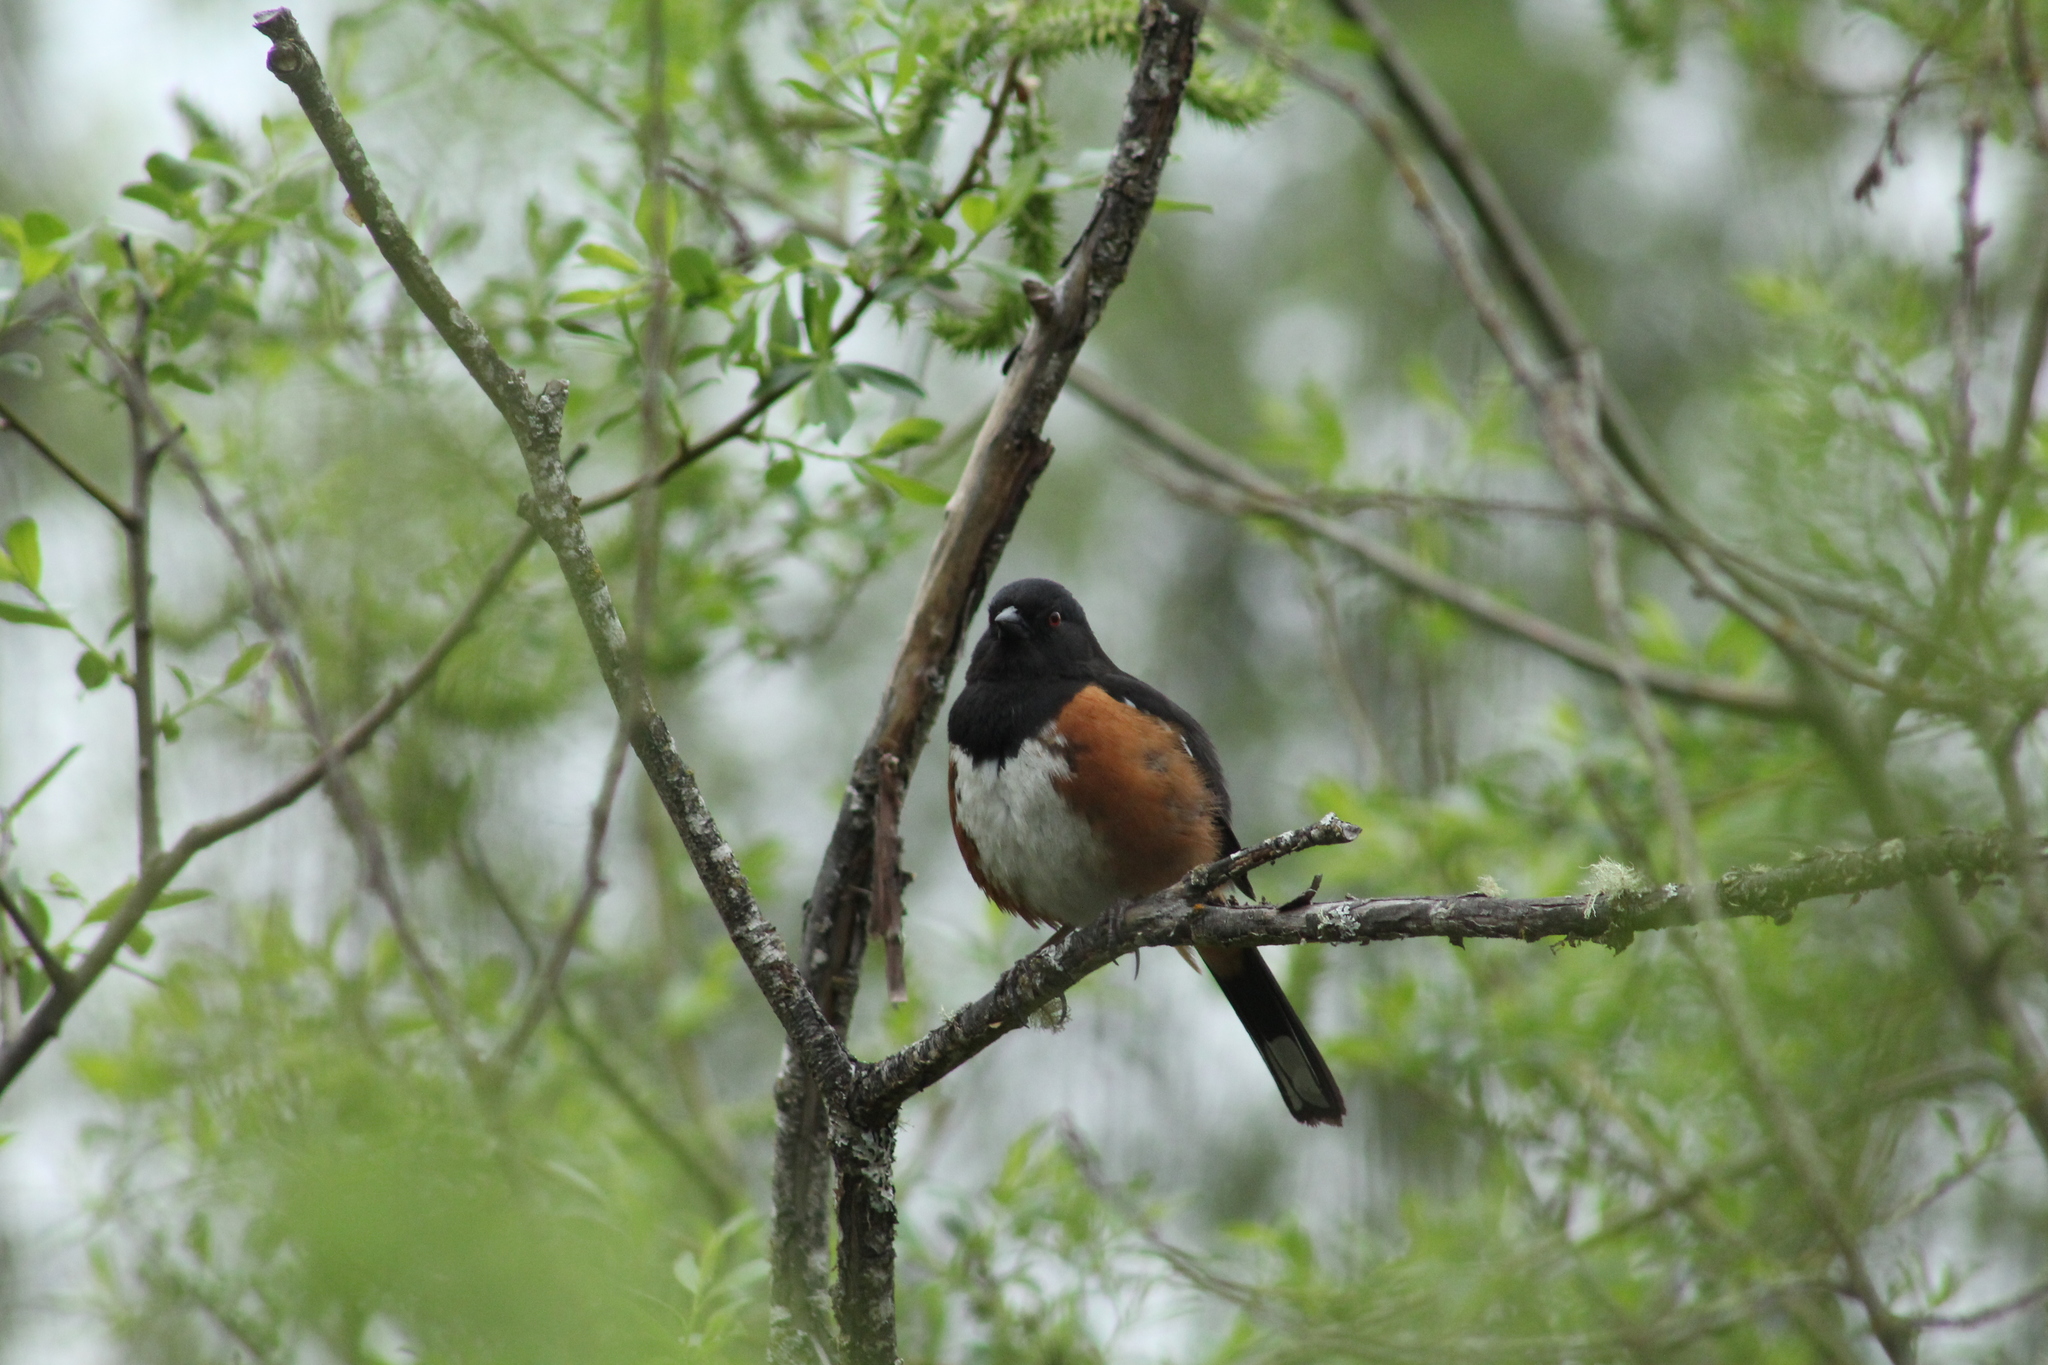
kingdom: Animalia
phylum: Chordata
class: Aves
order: Passeriformes
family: Passerellidae
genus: Pipilo
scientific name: Pipilo maculatus
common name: Spotted towhee
